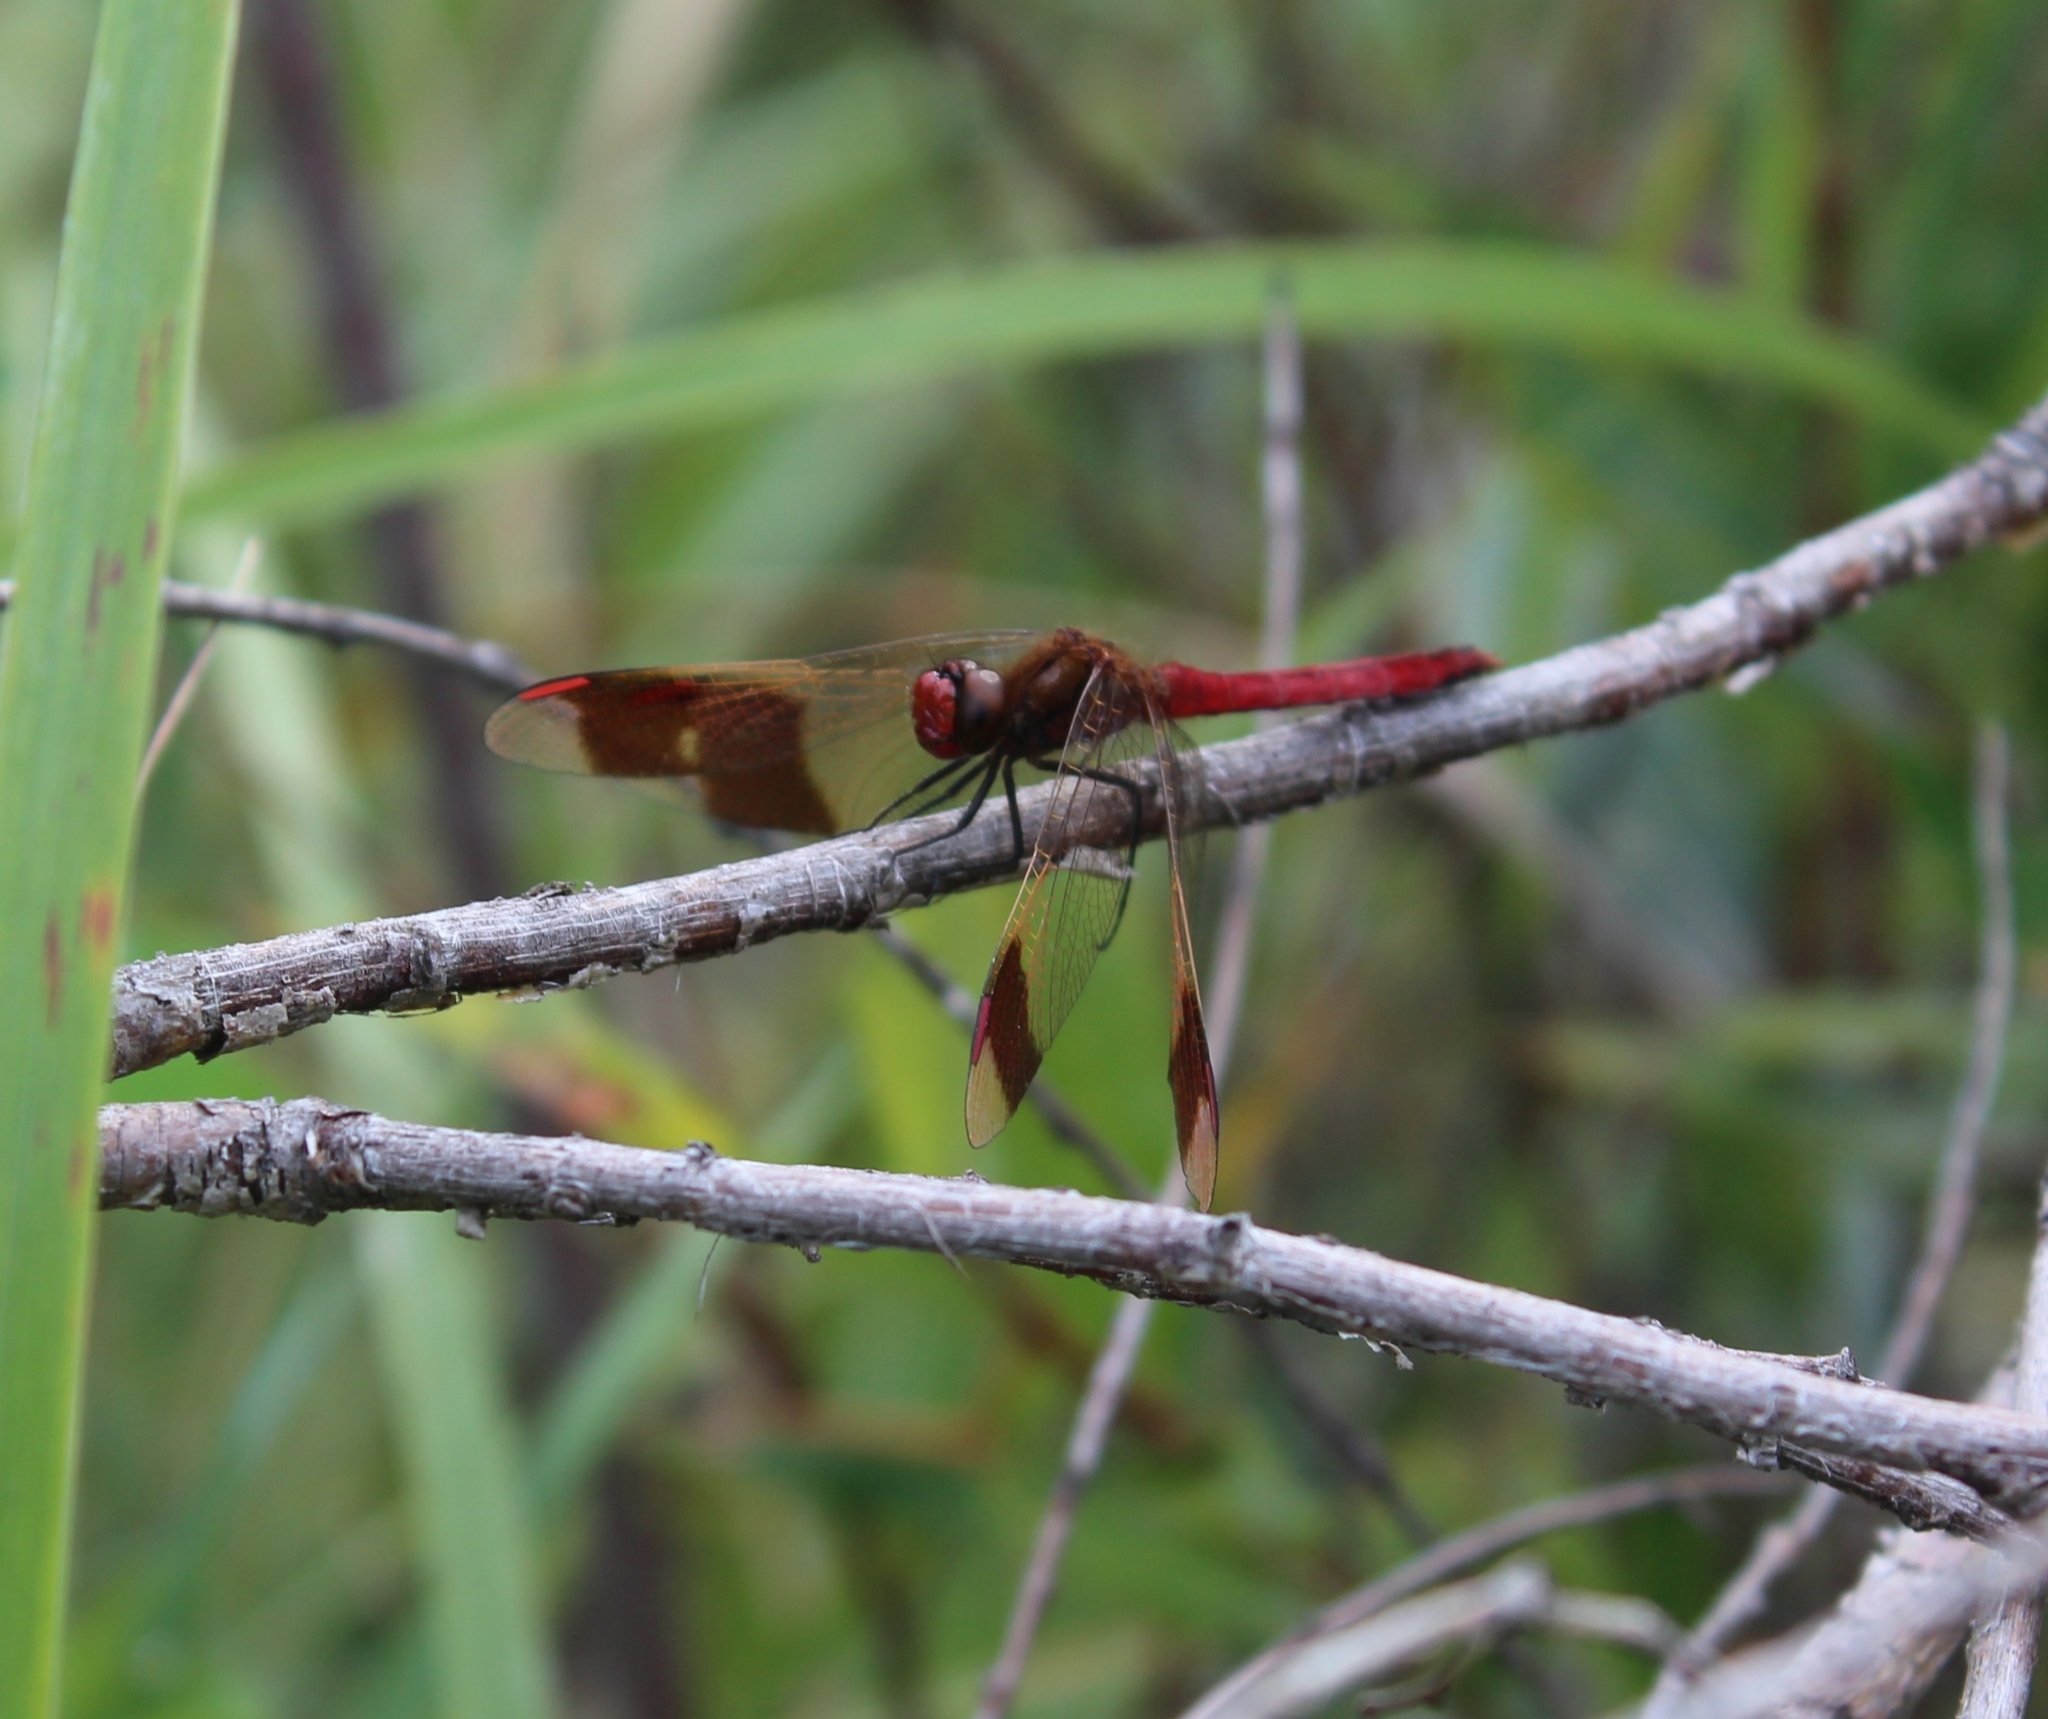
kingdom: Animalia
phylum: Arthropoda
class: Insecta
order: Odonata
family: Libellulidae
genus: Sympetrum
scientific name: Sympetrum pedemontanum
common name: Banded darter
